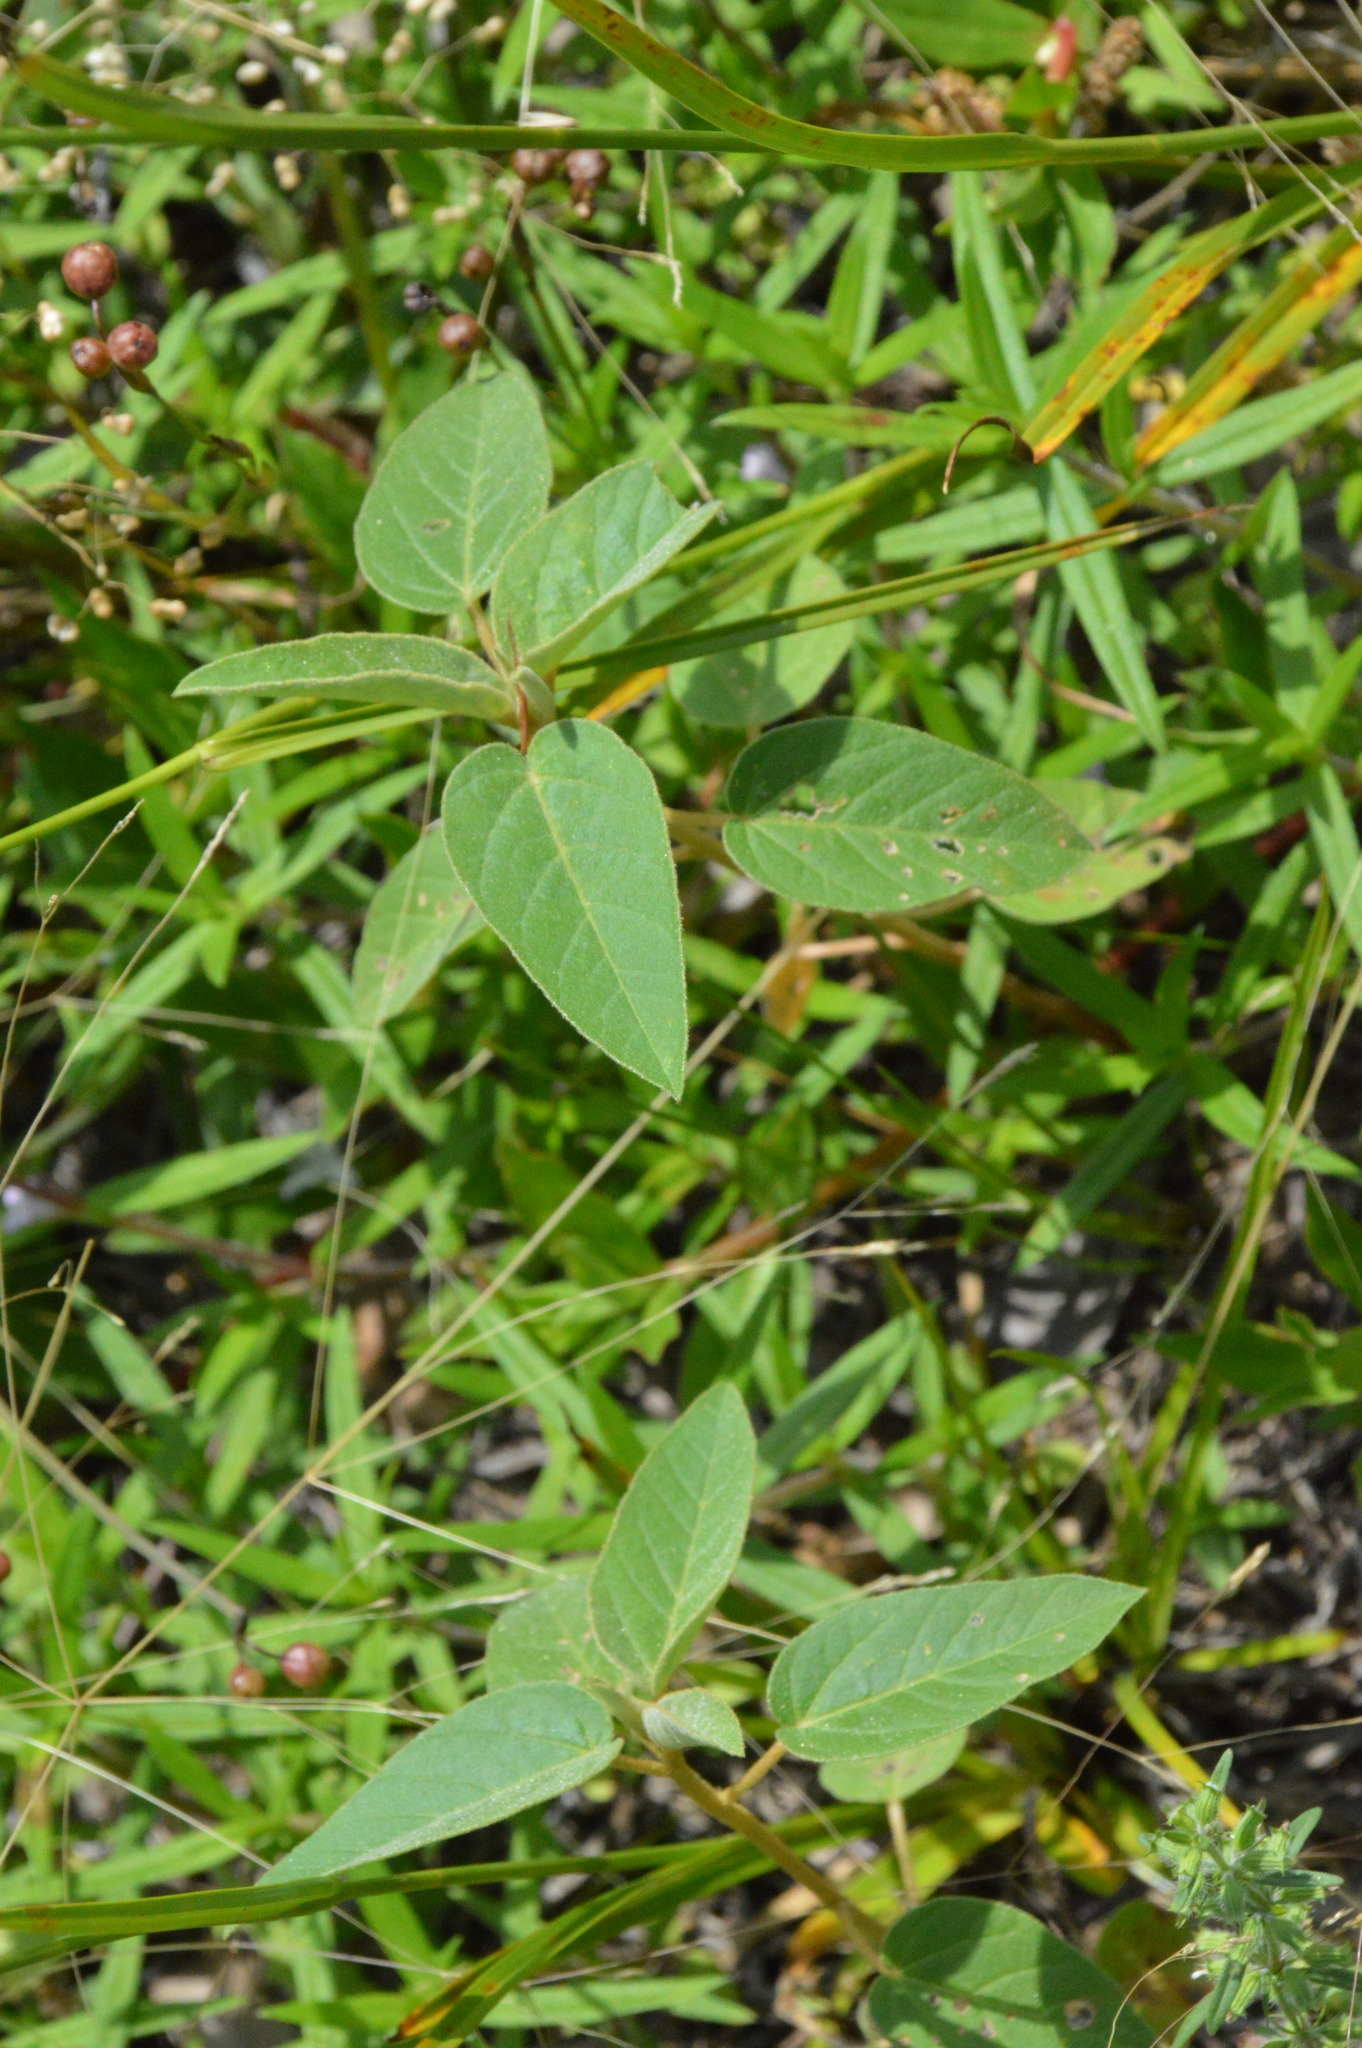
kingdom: Plantae
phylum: Tracheophyta
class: Magnoliopsida
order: Malpighiales
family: Euphorbiaceae
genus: Croton
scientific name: Croton lindheimeri
